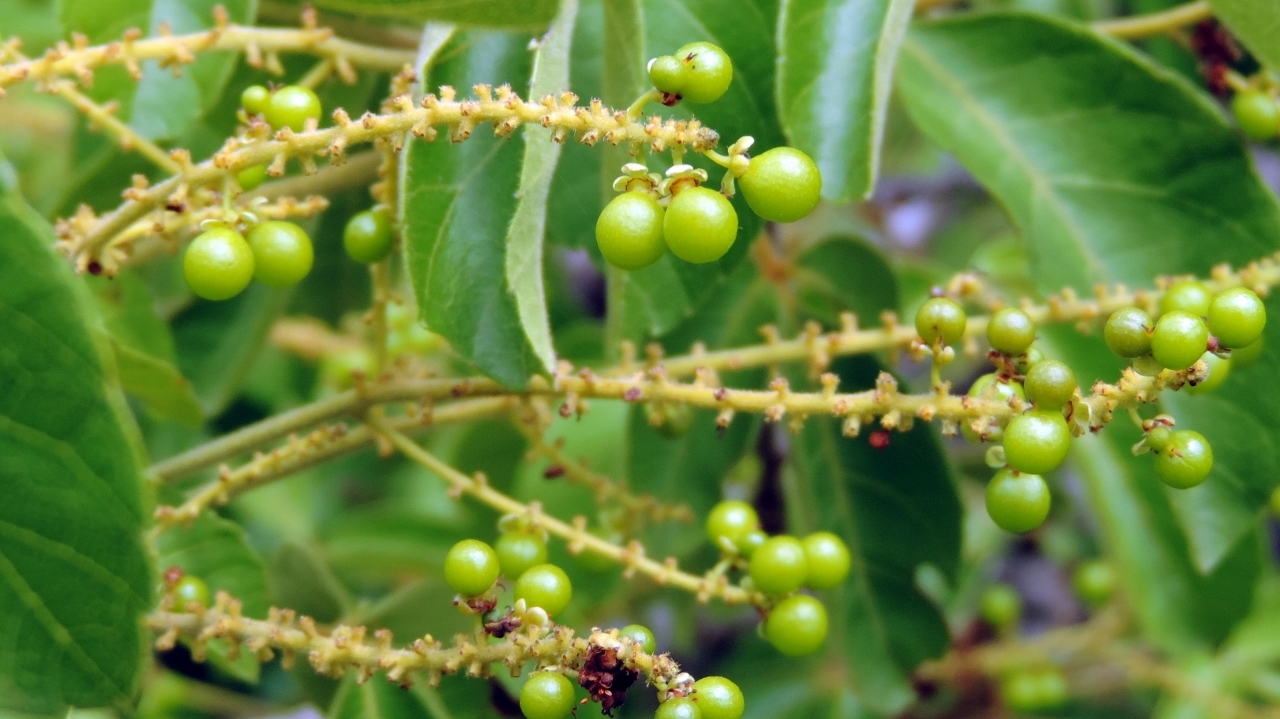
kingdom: Plantae
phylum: Tracheophyta
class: Magnoliopsida
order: Sapindales
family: Sapindaceae
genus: Allophylus
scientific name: Allophylus africanus
